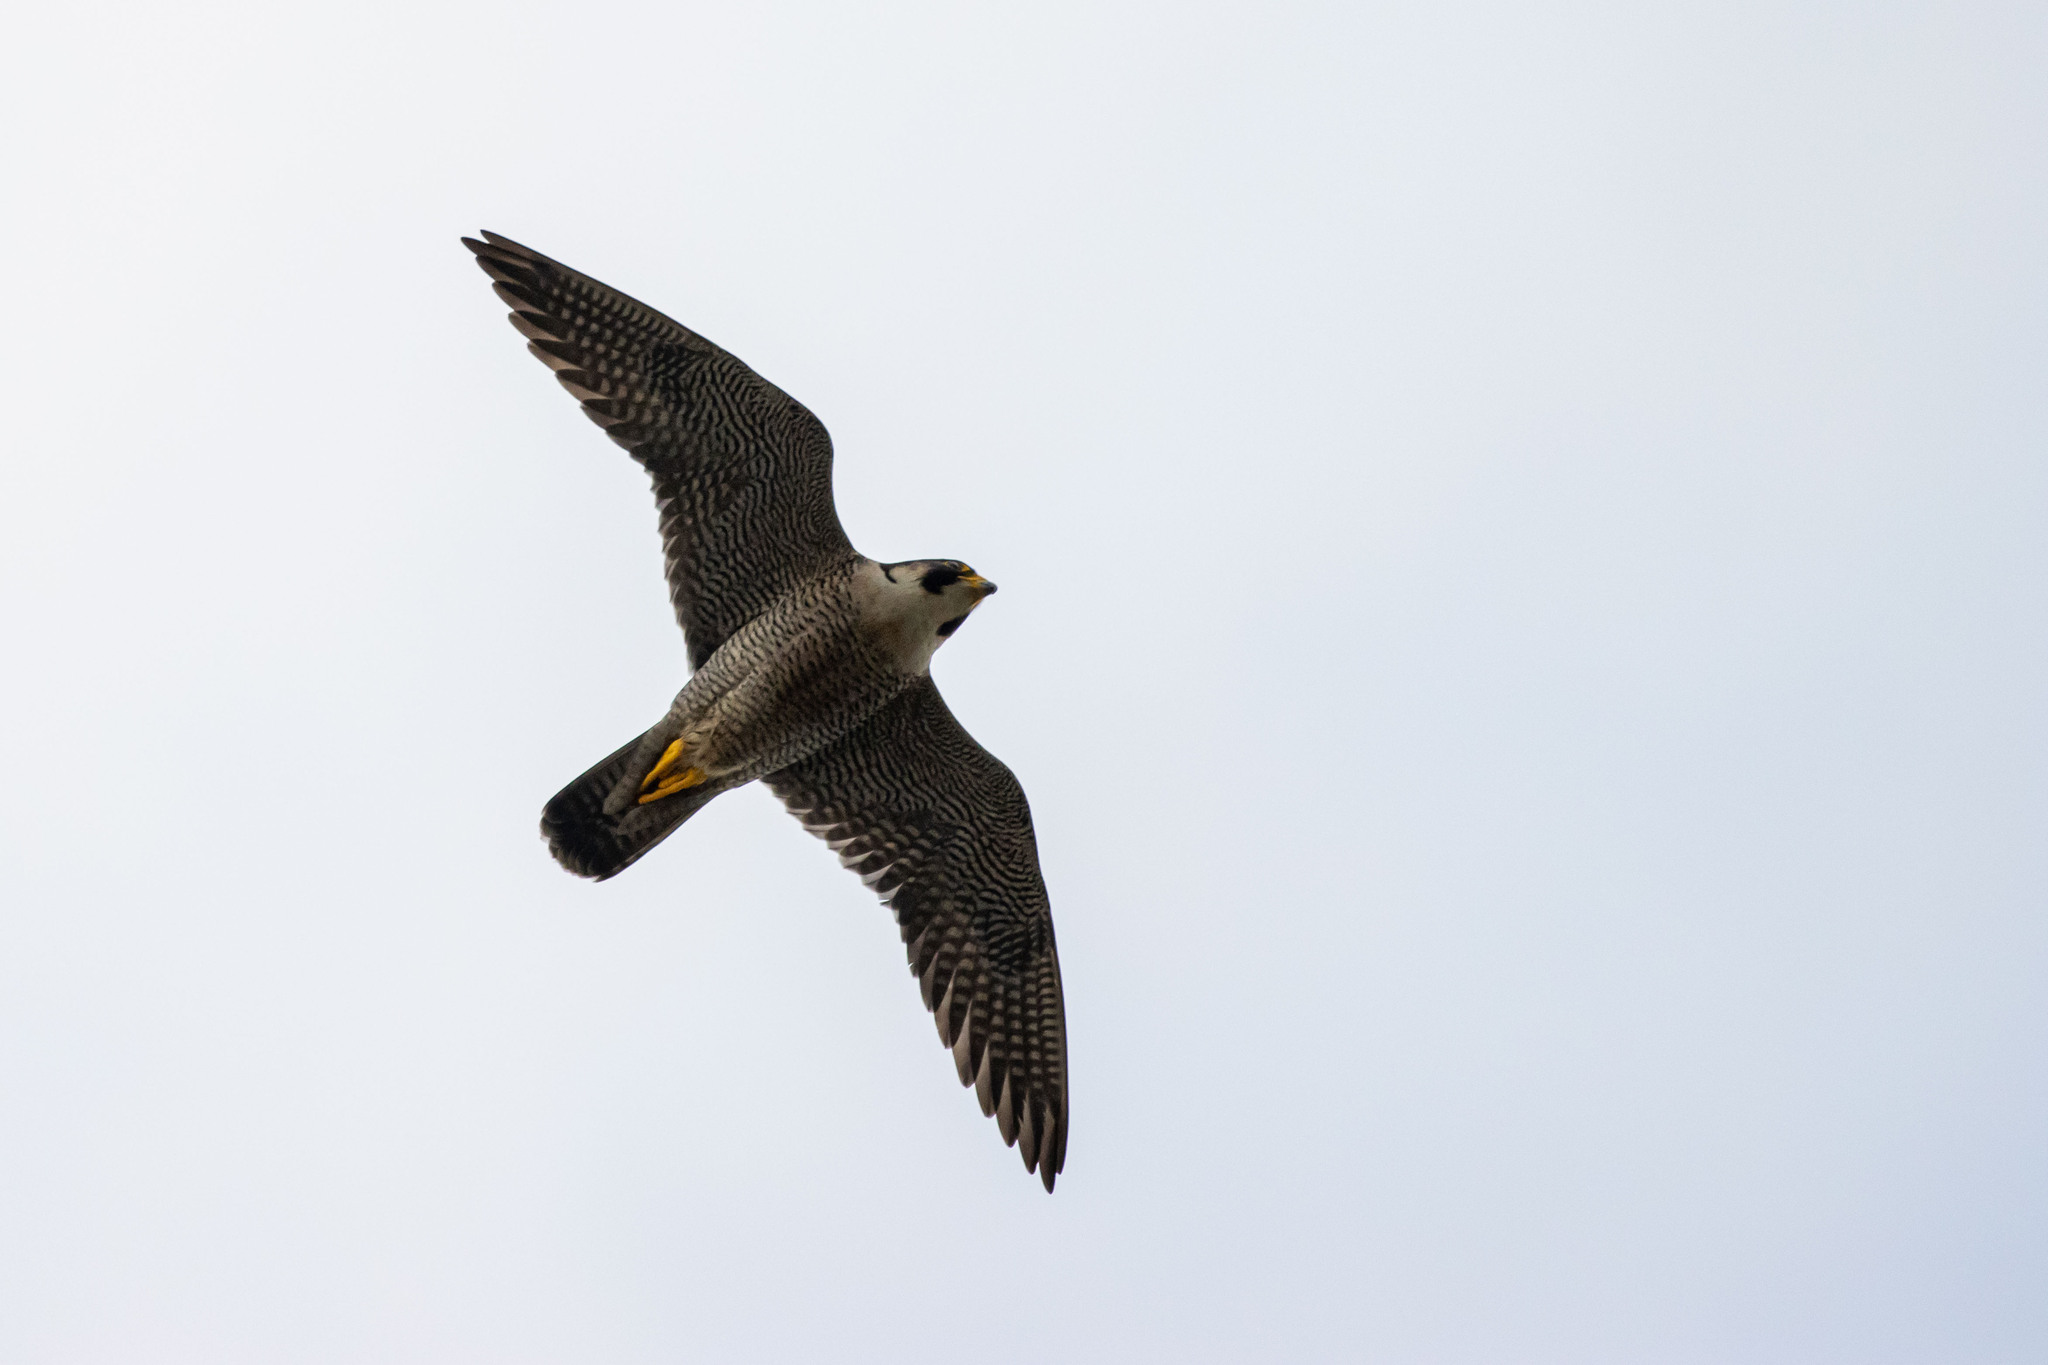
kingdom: Animalia
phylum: Chordata
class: Aves
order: Falconiformes
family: Falconidae
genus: Falco
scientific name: Falco peregrinus
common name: Peregrine falcon
